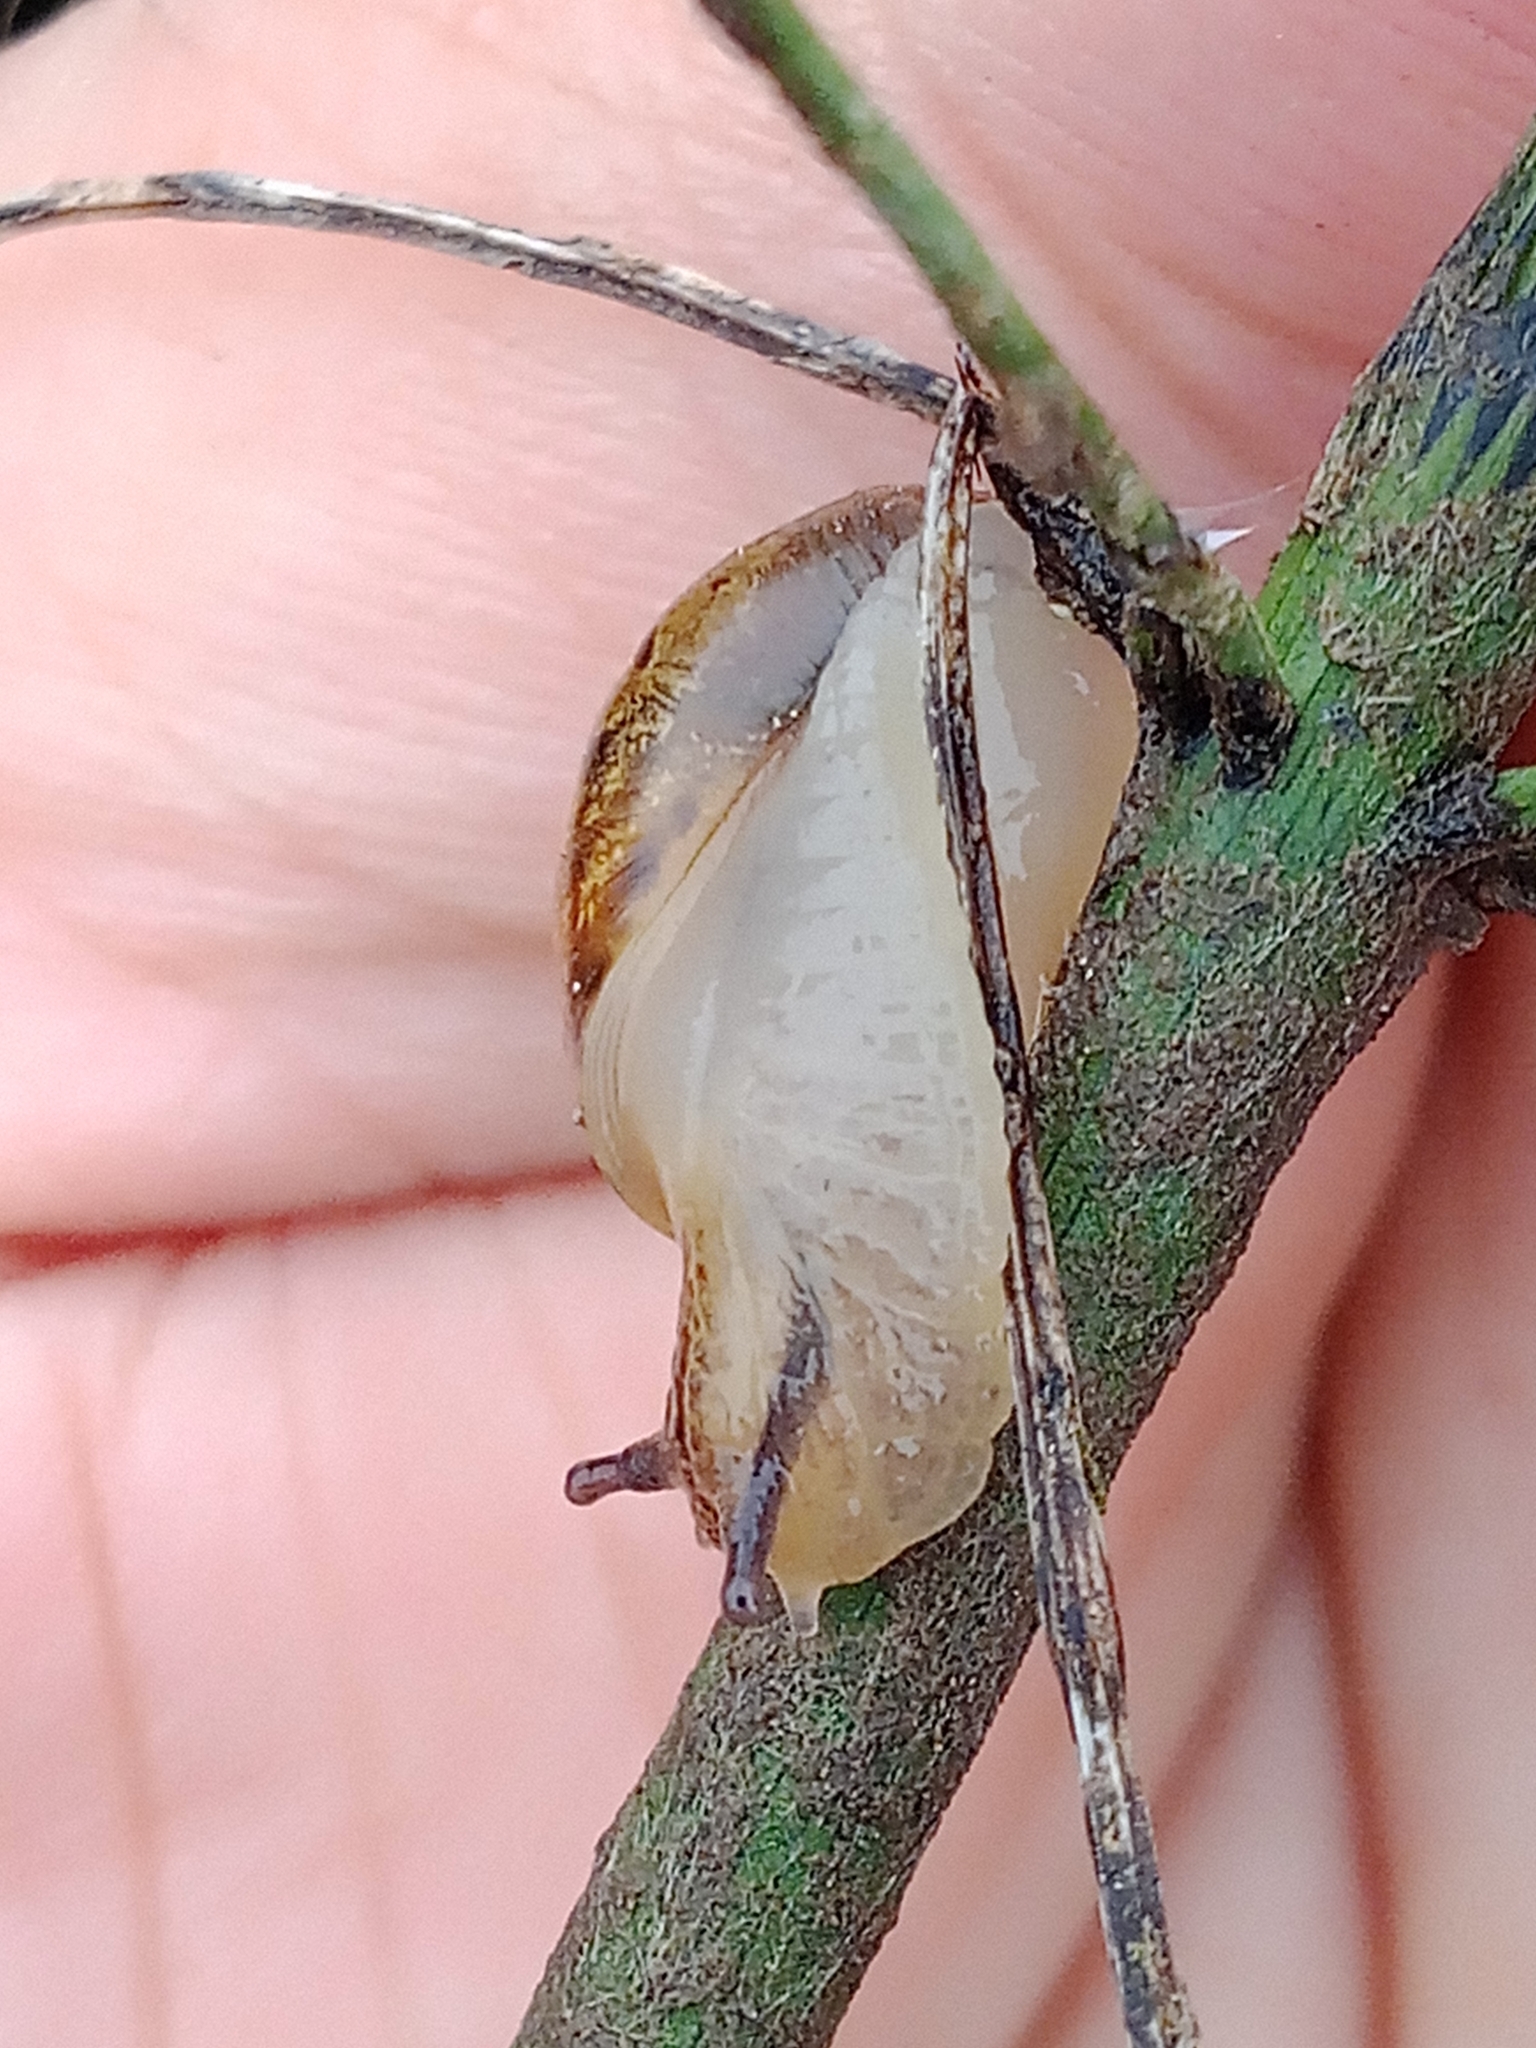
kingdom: Animalia
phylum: Mollusca
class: Gastropoda
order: Stylommatophora
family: Succineidae
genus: Succinea
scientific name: Succinea putris
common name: European ambersnail
